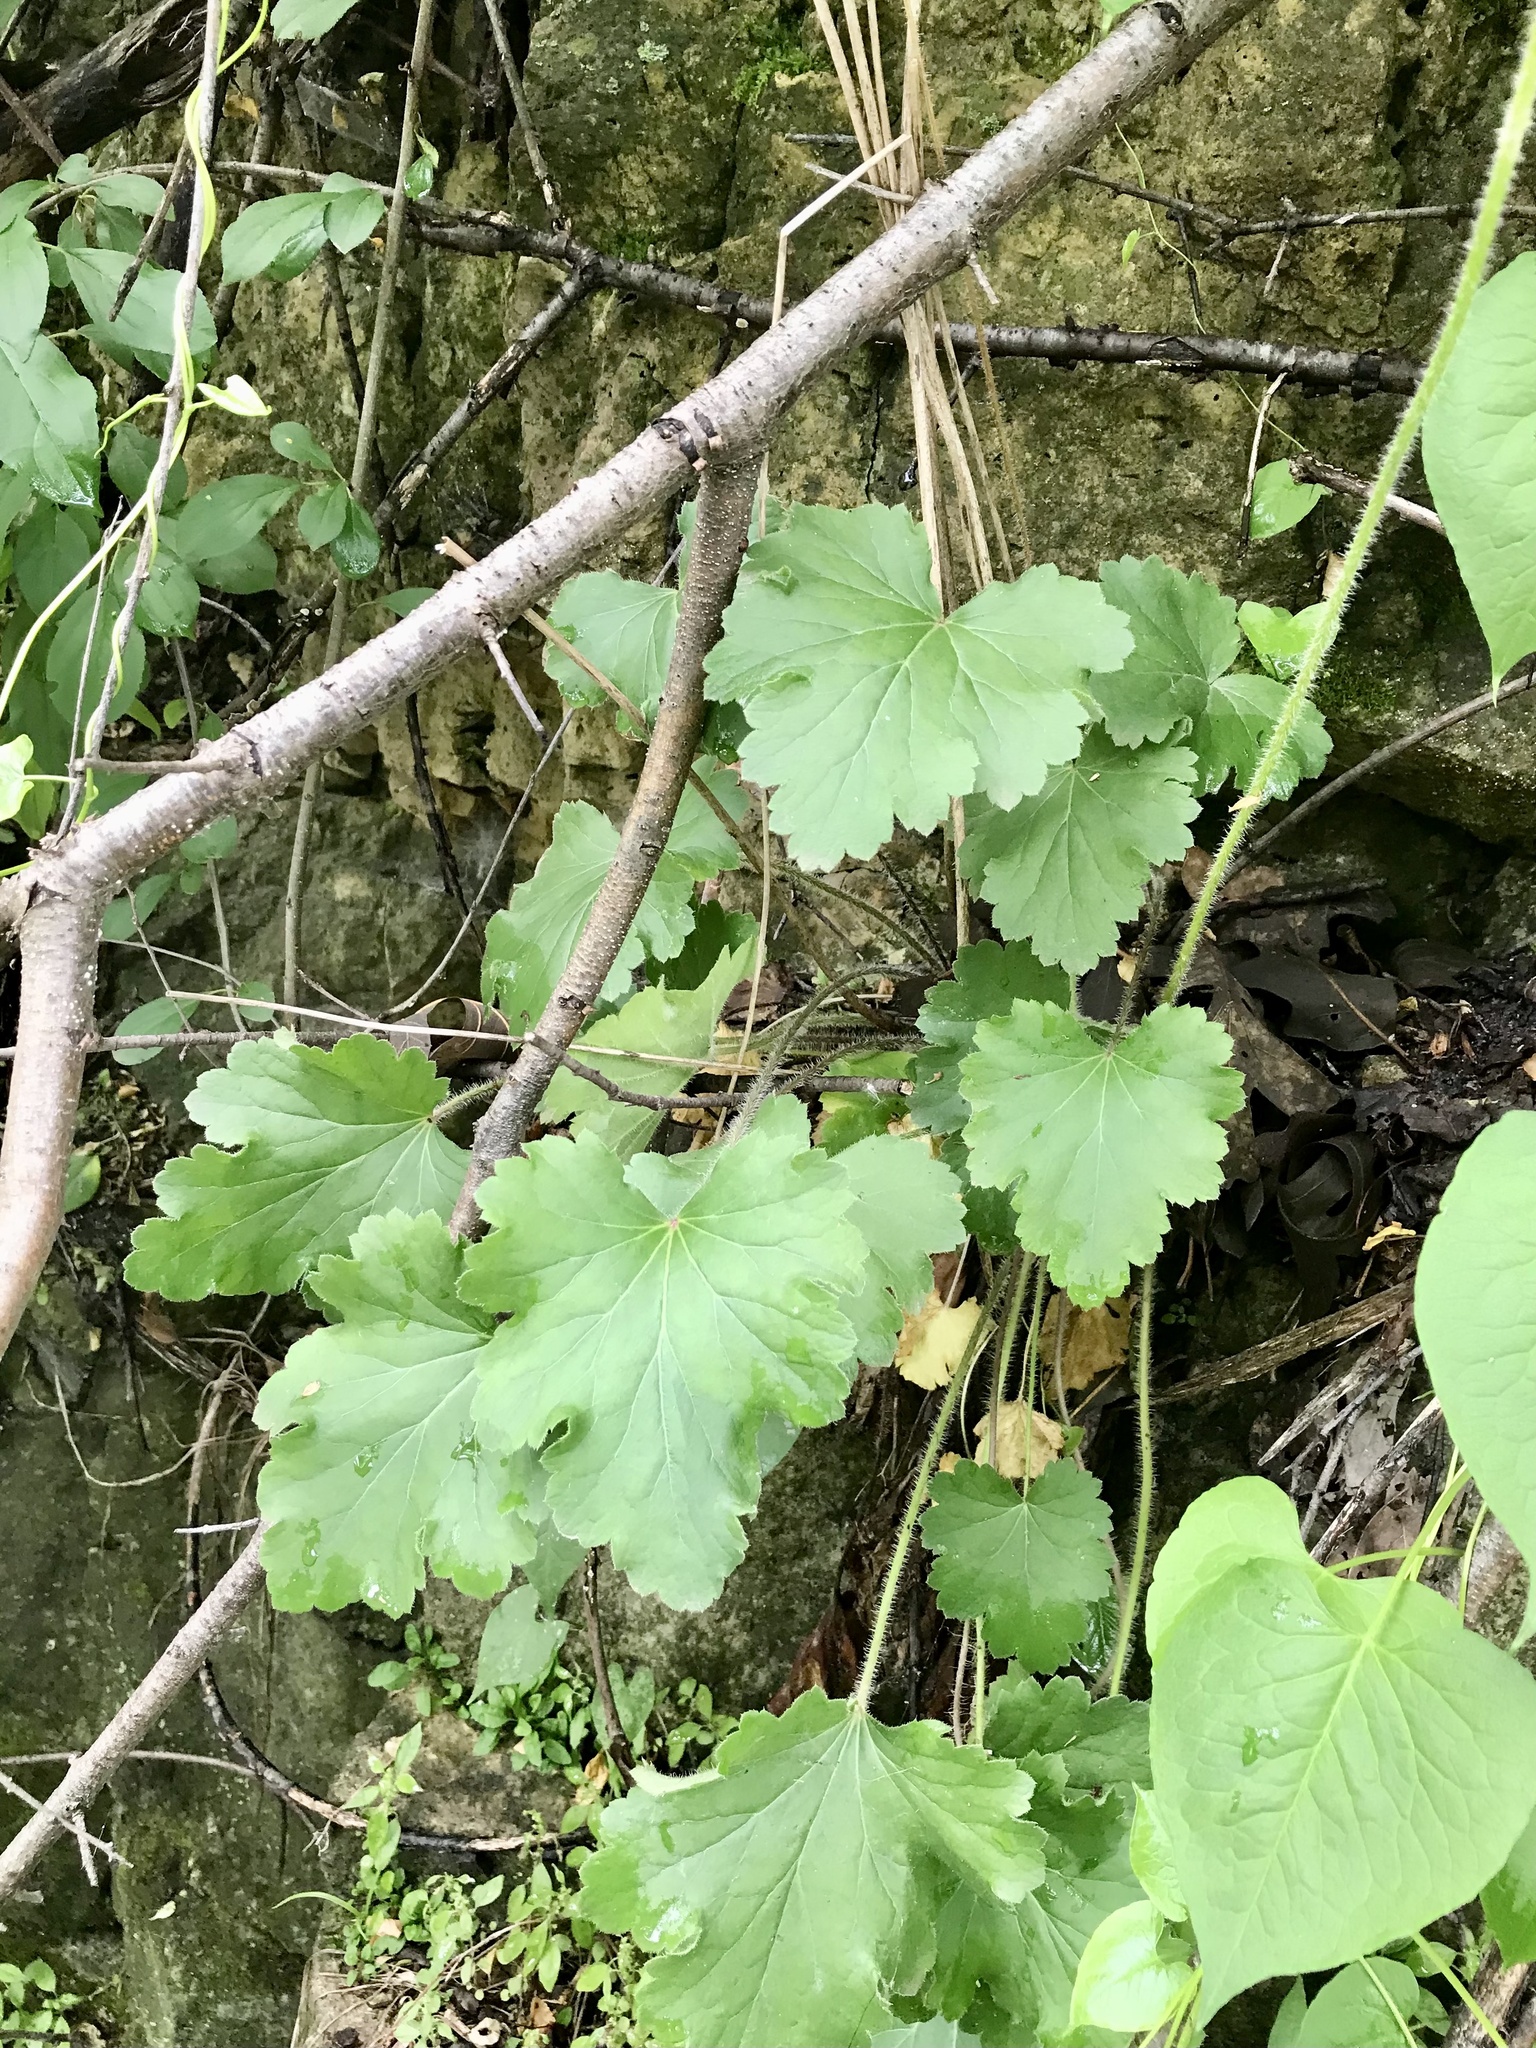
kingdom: Plantae
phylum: Tracheophyta
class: Magnoliopsida
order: Saxifragales
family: Saxifragaceae
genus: Heuchera
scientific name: Heuchera richardsonii
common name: Richardson's alumroot
